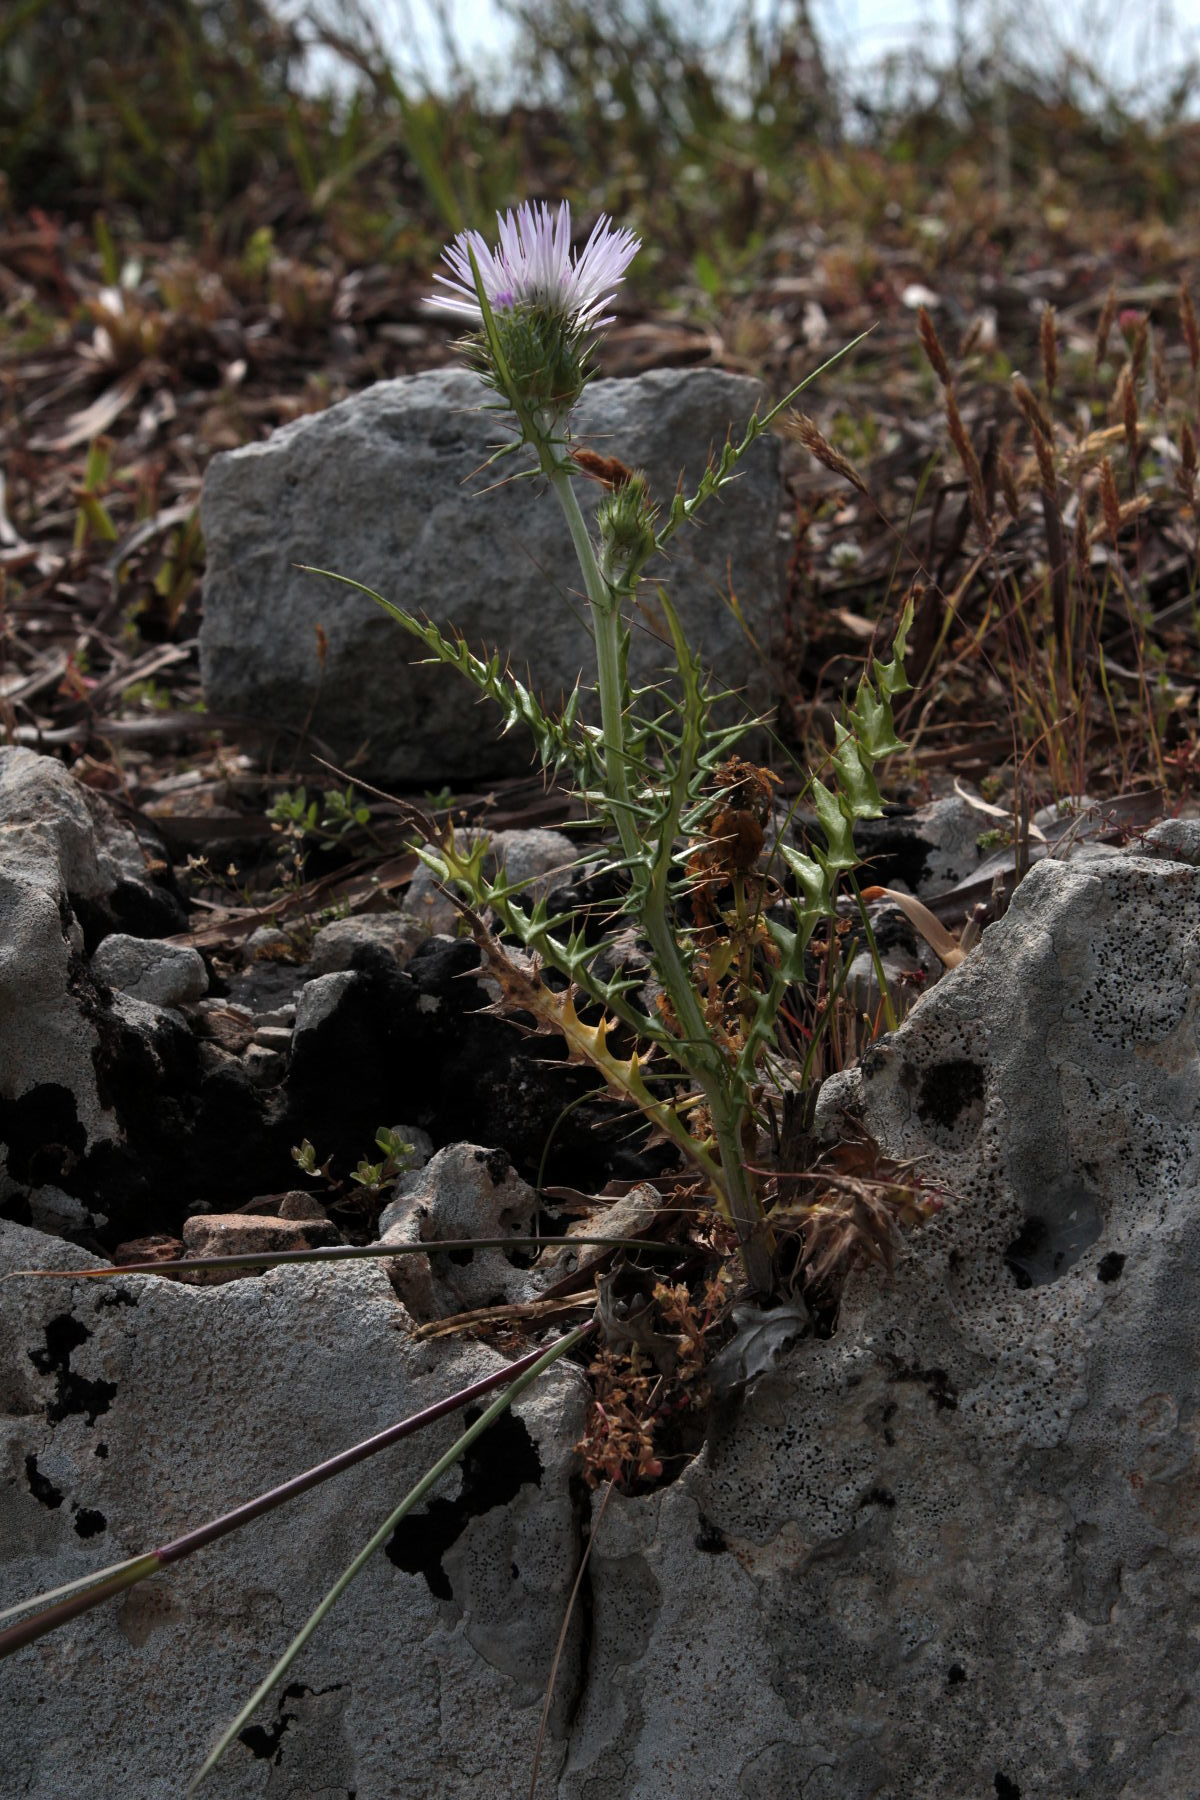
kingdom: Plantae
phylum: Tracheophyta
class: Magnoliopsida
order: Asterales
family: Asteraceae
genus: Galactites
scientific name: Galactites tomentosa
